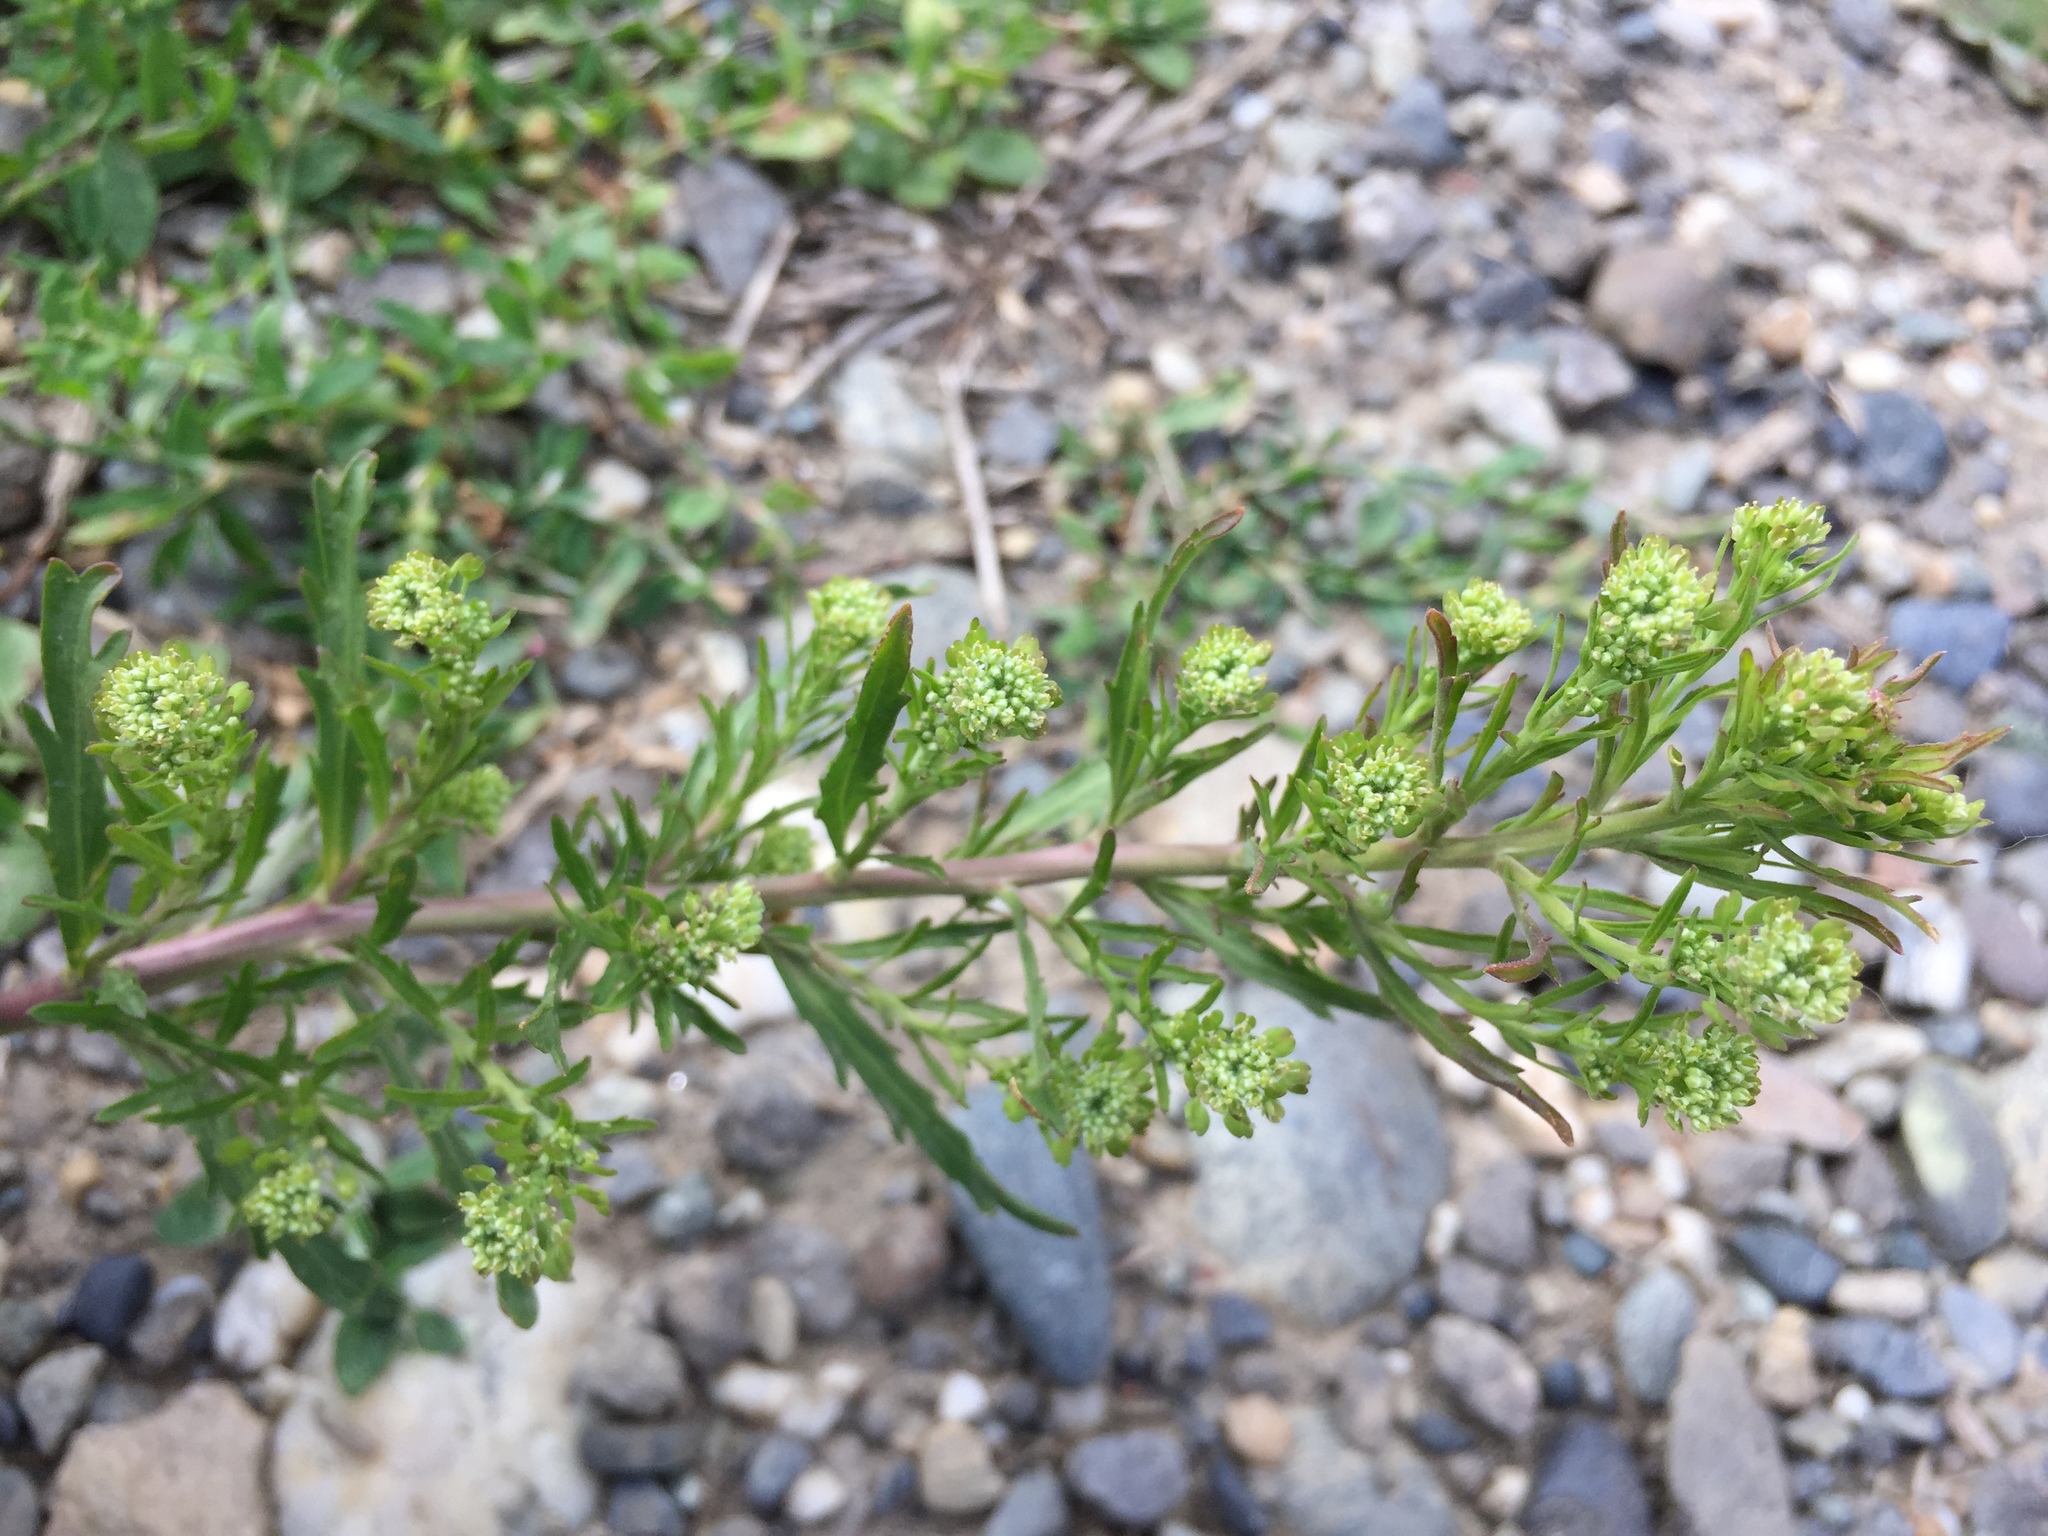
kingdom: Plantae
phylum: Tracheophyta
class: Magnoliopsida
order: Brassicales
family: Brassicaceae
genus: Lepidium
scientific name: Lepidium densiflorum
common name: Miner's pepperwort
